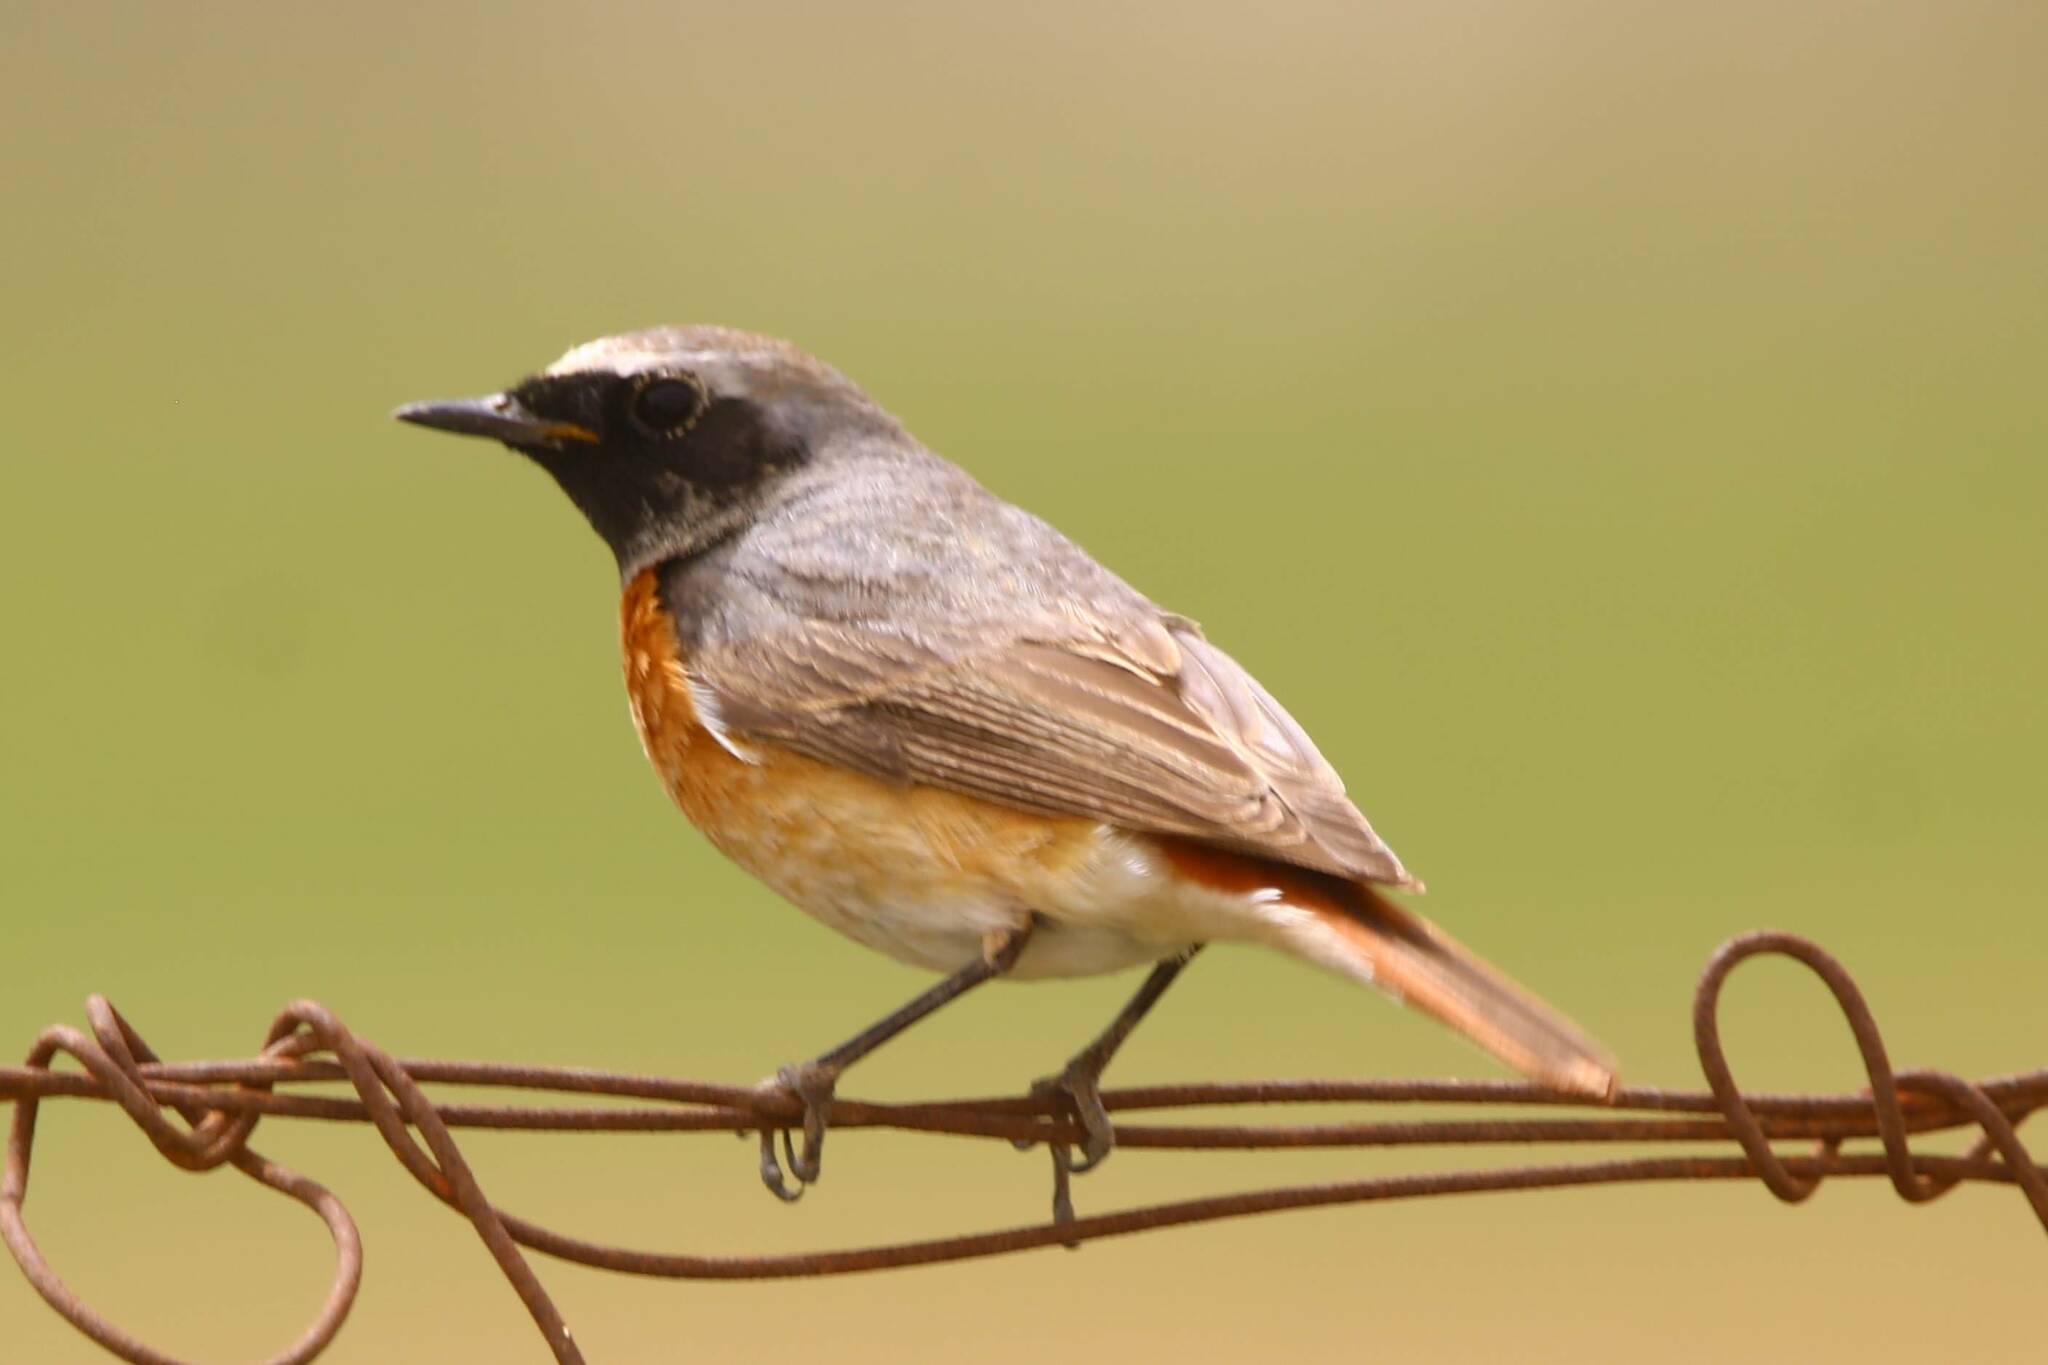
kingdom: Animalia
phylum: Chordata
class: Aves
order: Passeriformes
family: Muscicapidae
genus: Phoenicurus
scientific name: Phoenicurus phoenicurus
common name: Common redstart
